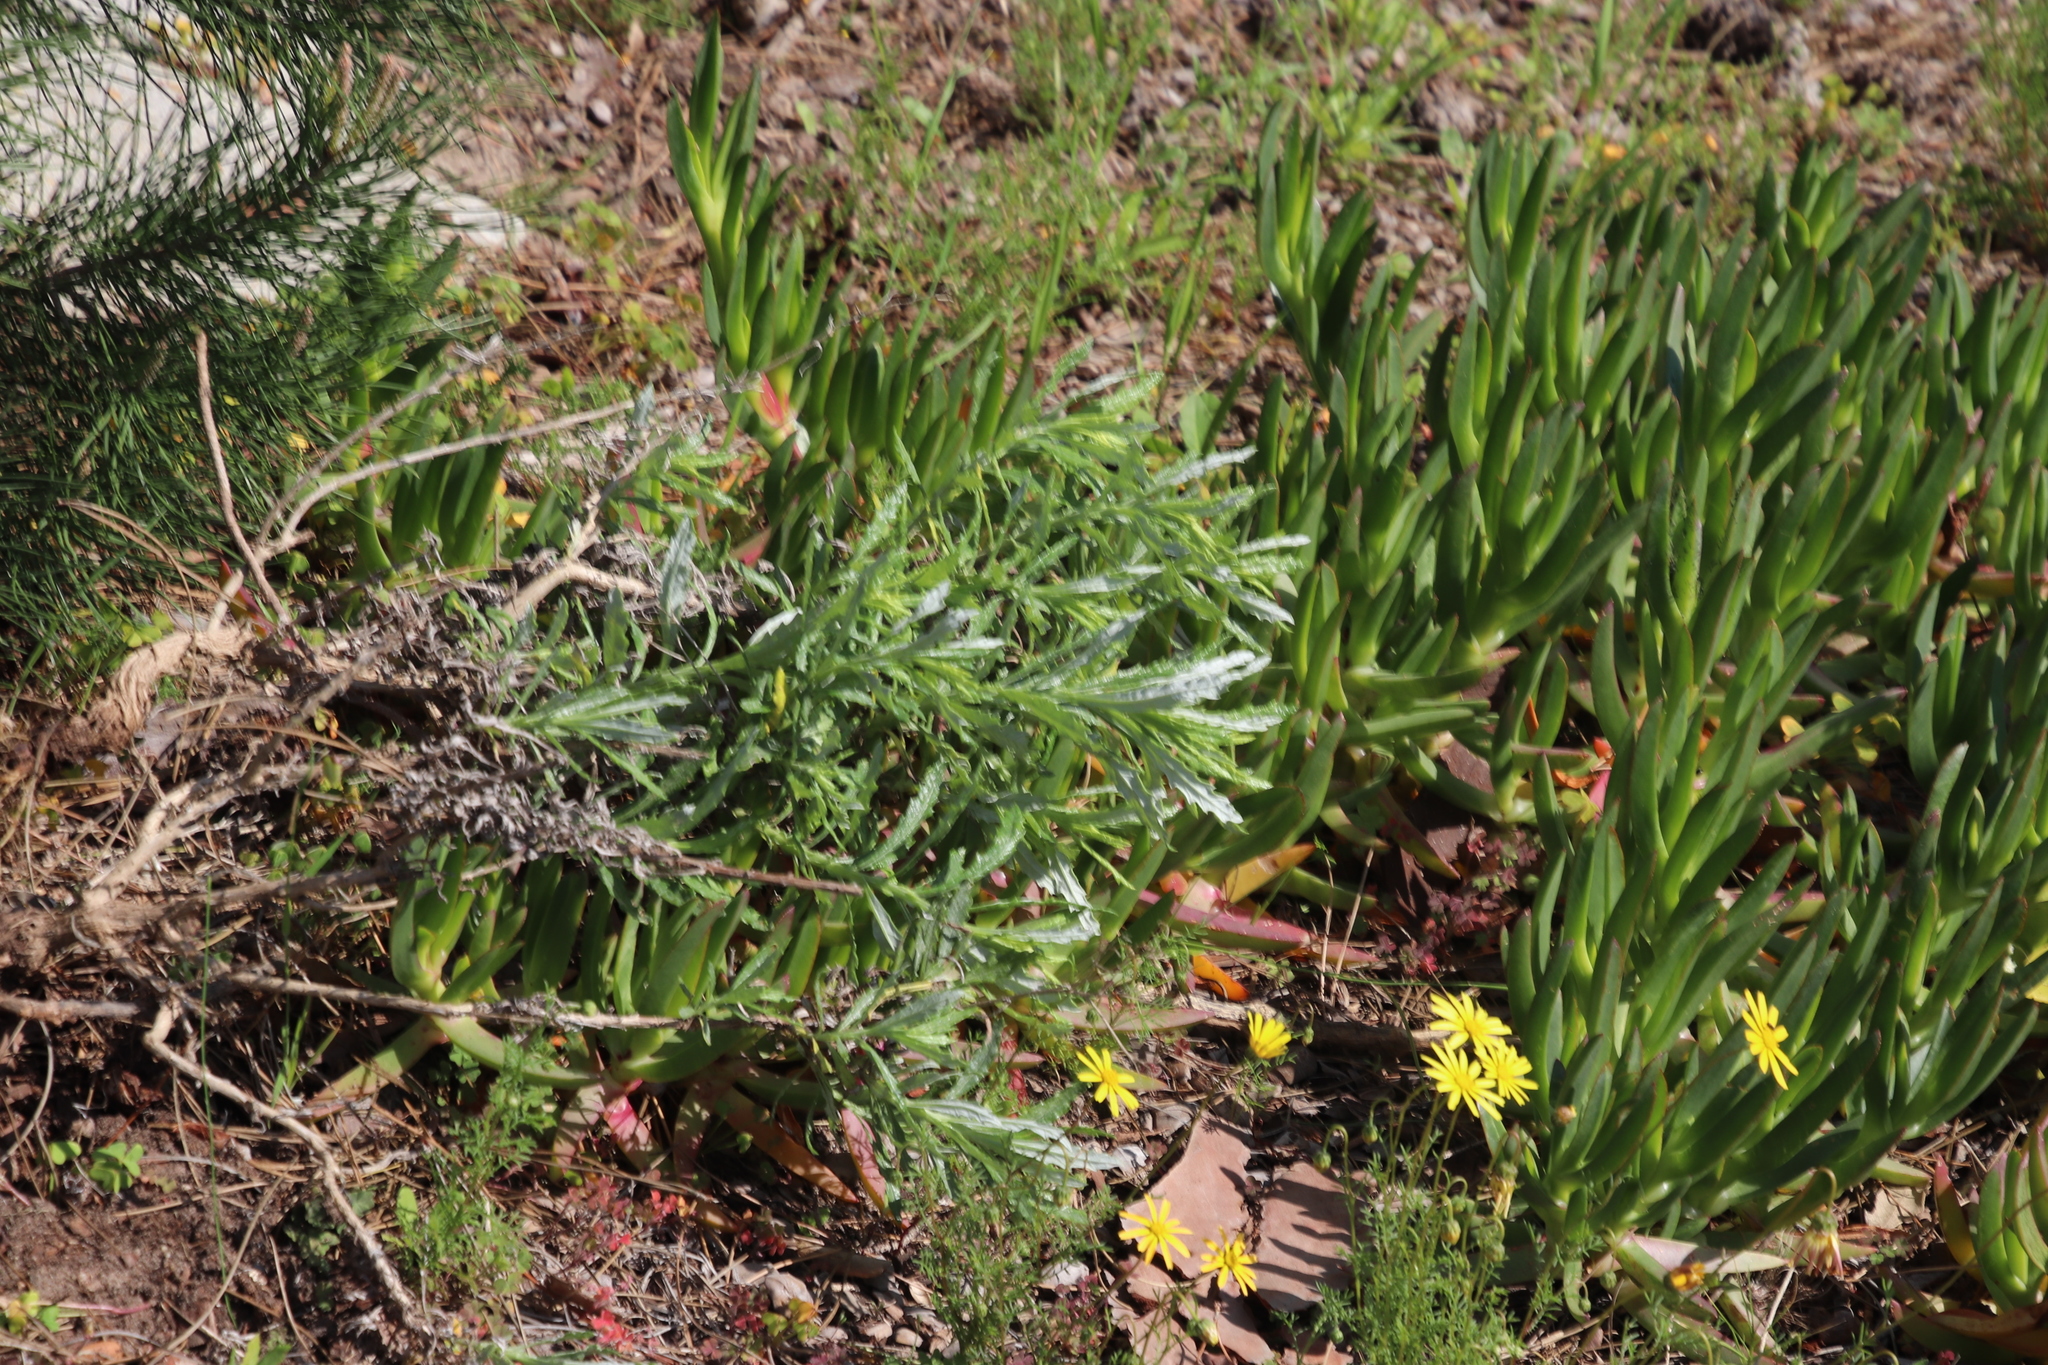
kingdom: Plantae
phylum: Tracheophyta
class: Magnoliopsida
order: Asterales
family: Asteraceae
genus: Senecio
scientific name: Senecio pterophorus
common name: Shoddy ragwort
